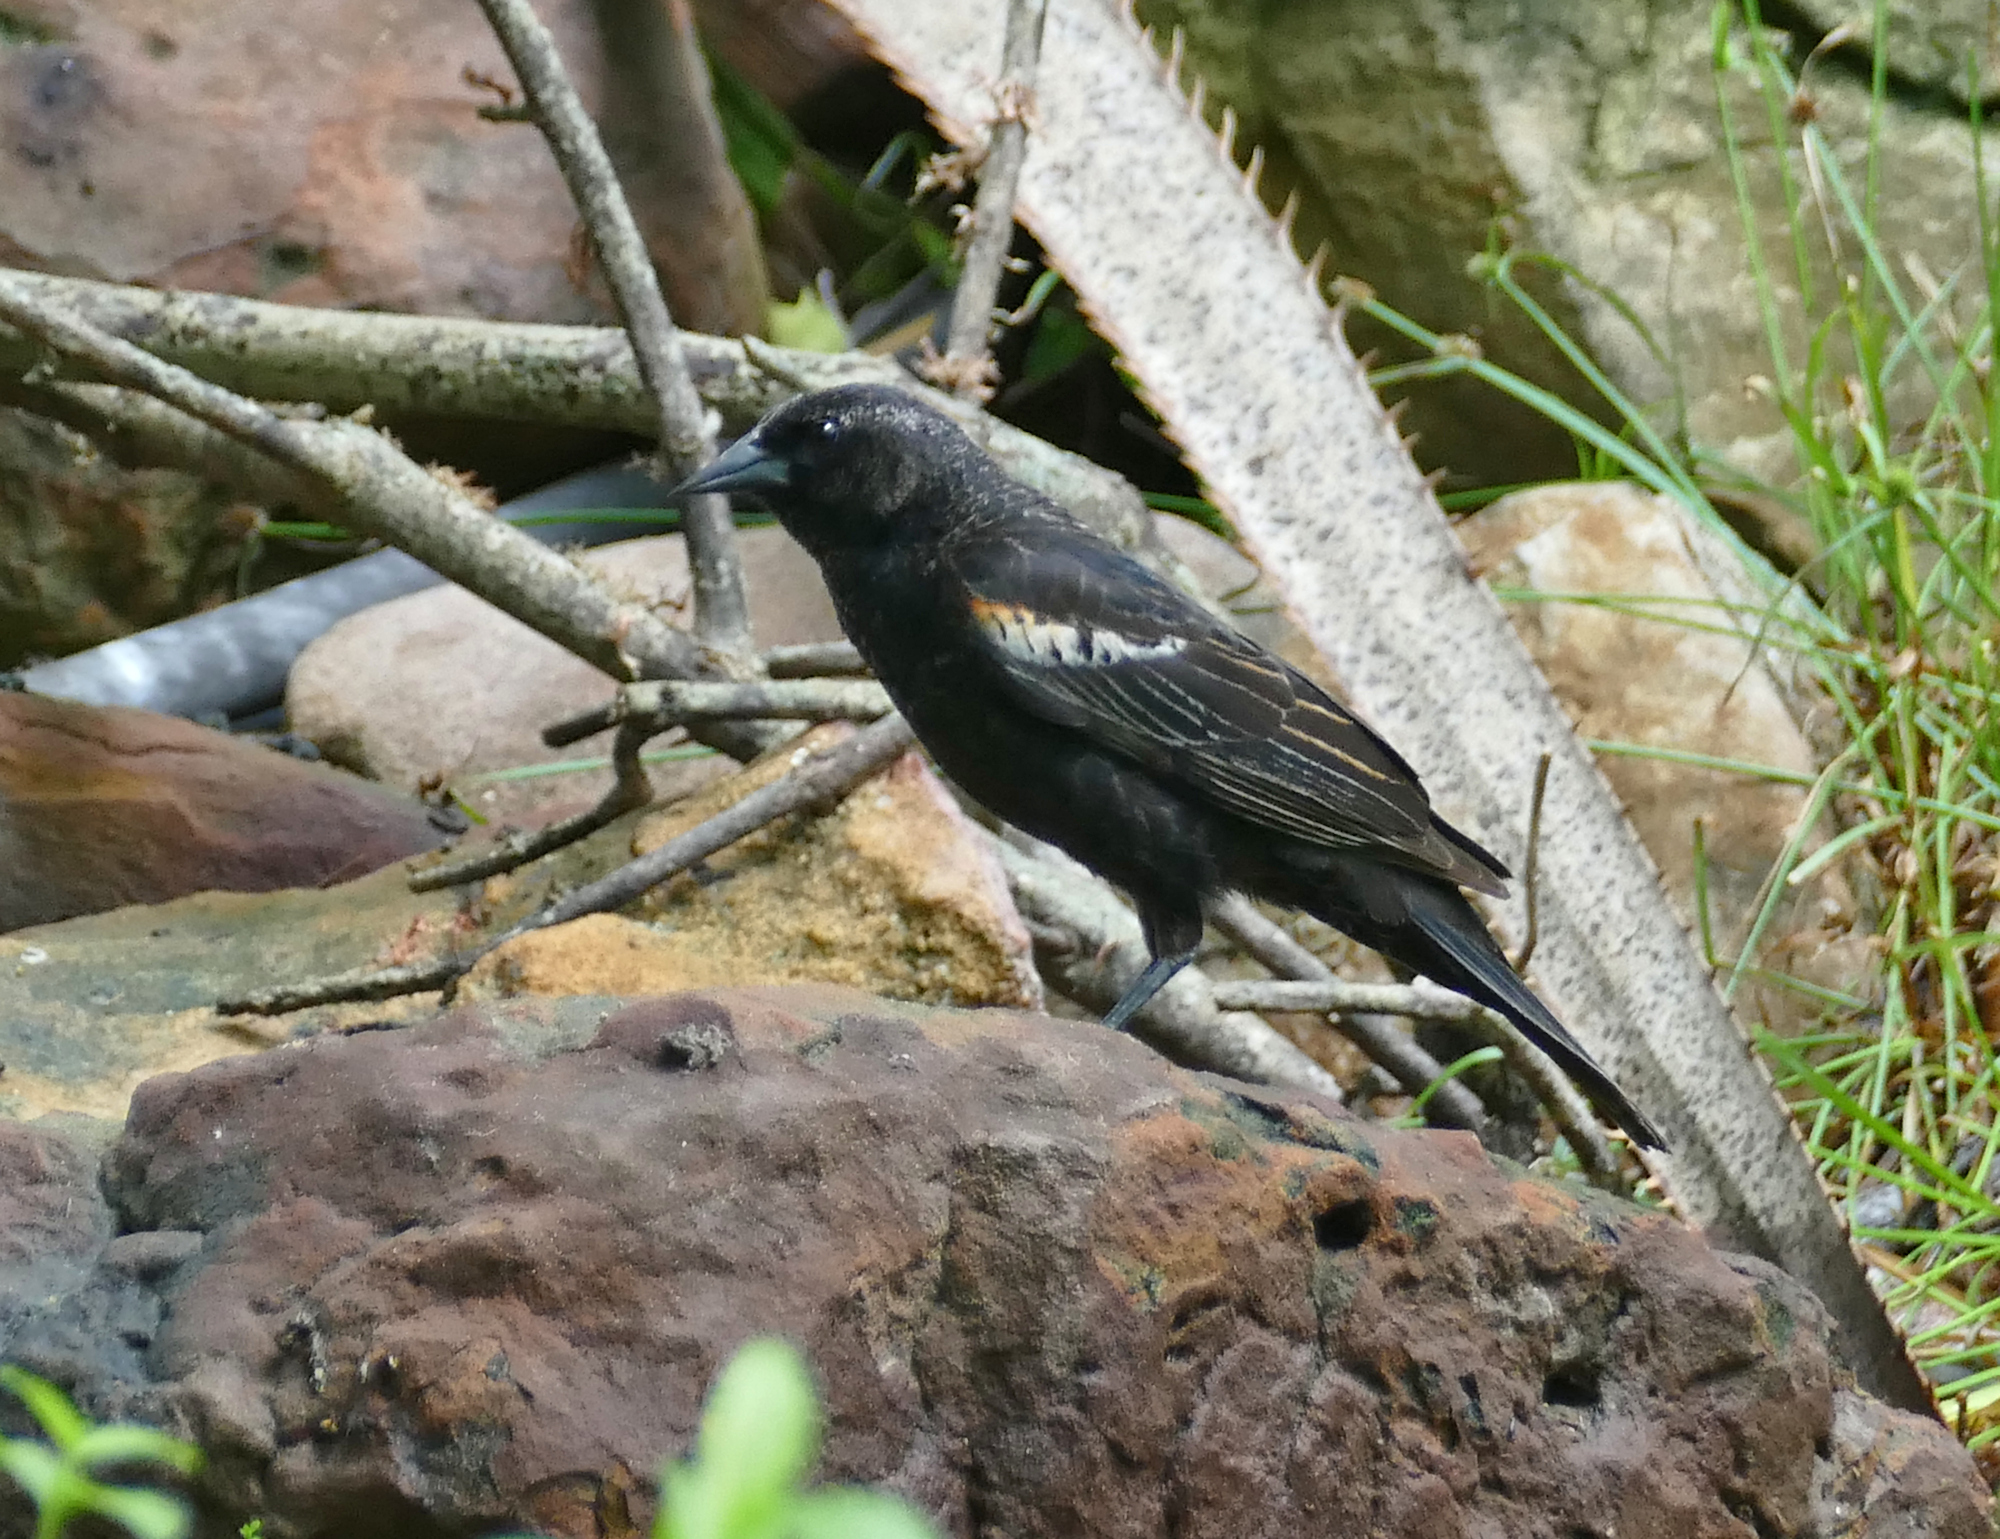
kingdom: Animalia
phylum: Chordata
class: Aves
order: Passeriformes
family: Icteridae
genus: Agelaius
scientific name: Agelaius phoeniceus
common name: Red-winged blackbird
